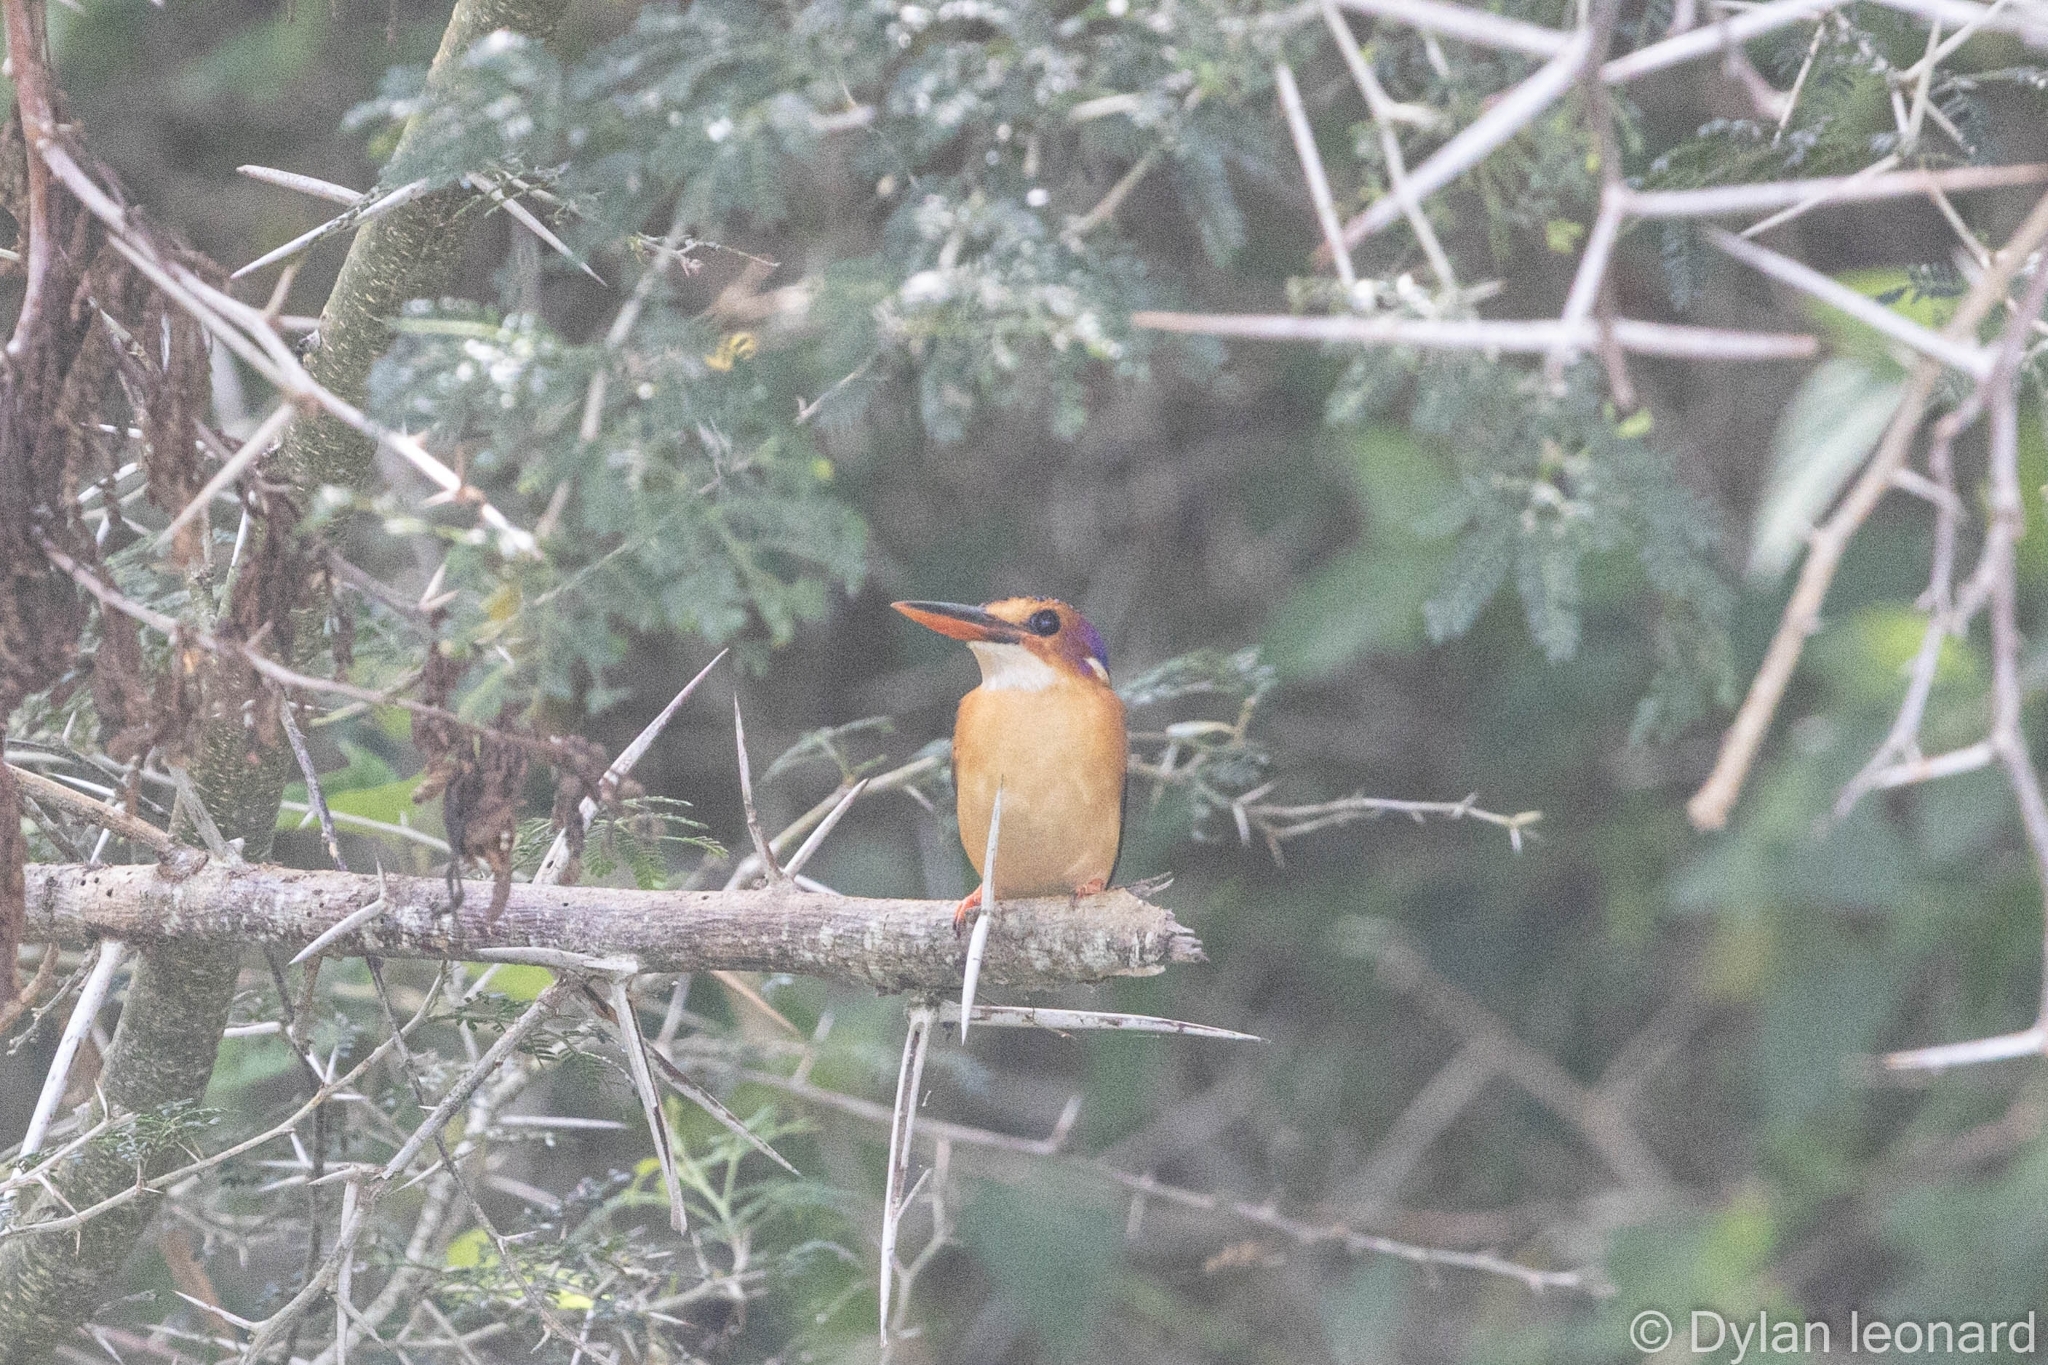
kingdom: Animalia
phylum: Chordata
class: Aves
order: Coraciiformes
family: Alcedinidae
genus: Ispidina
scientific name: Ispidina picta
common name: African pygmy-kingfisher
